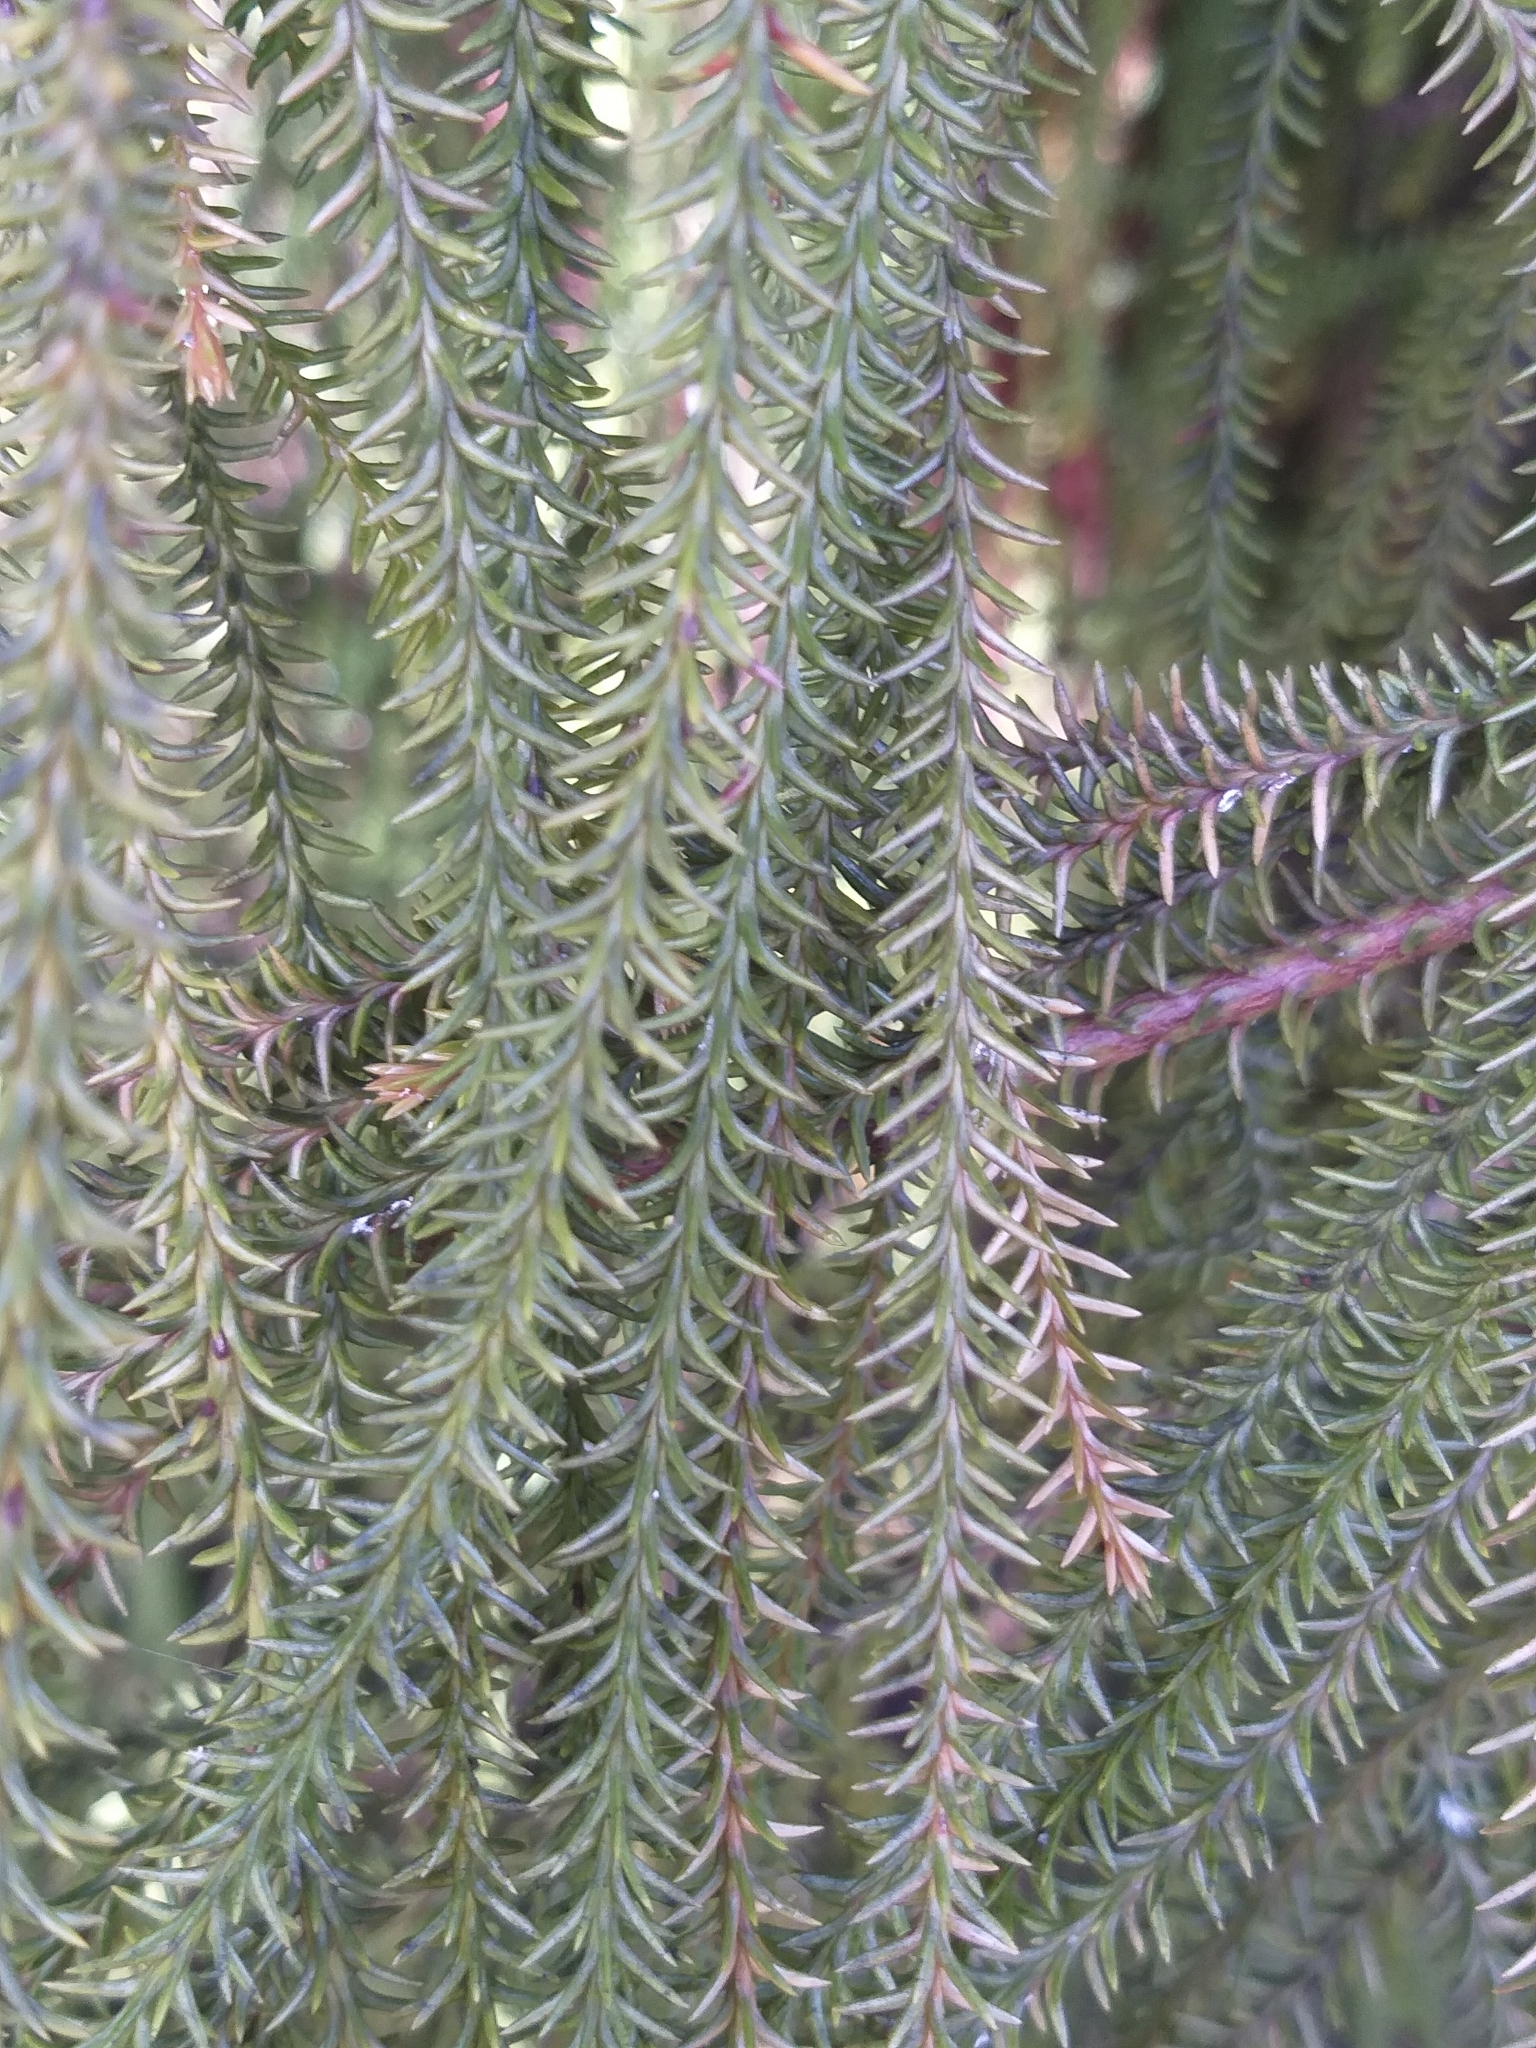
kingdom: Plantae
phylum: Tracheophyta
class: Pinopsida
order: Pinales
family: Podocarpaceae
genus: Dacrydium
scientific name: Dacrydium cupressinum
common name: Red pine
